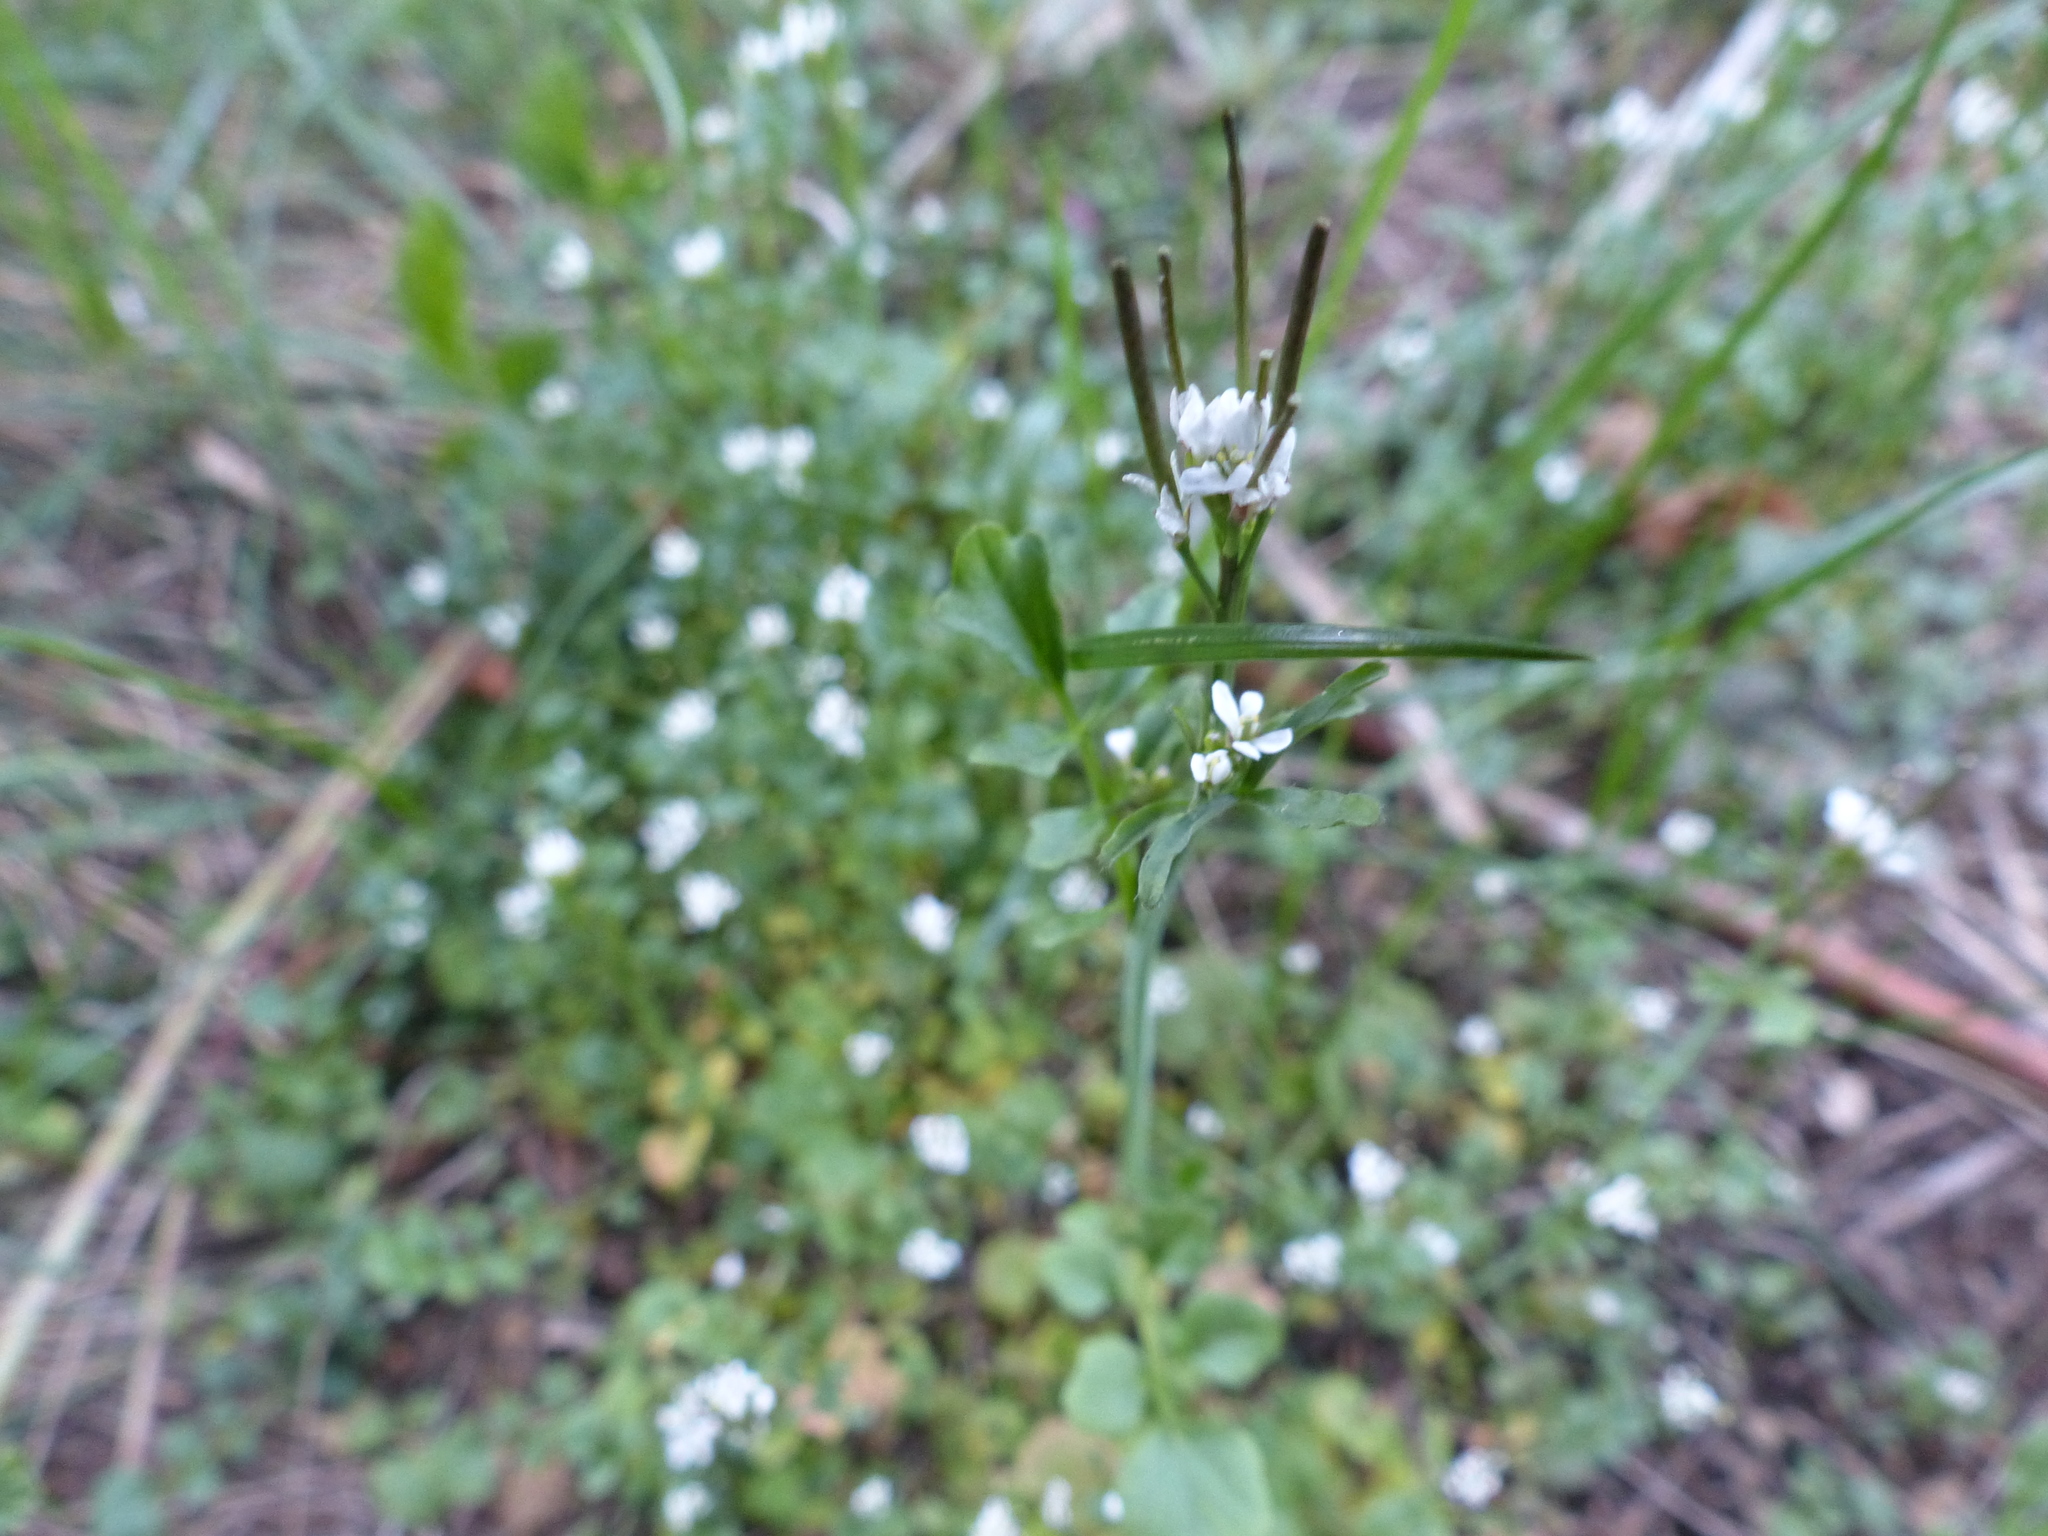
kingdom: Plantae
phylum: Tracheophyta
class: Magnoliopsida
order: Brassicales
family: Brassicaceae
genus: Cardamine
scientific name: Cardamine hirsuta
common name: Hairy bittercress
